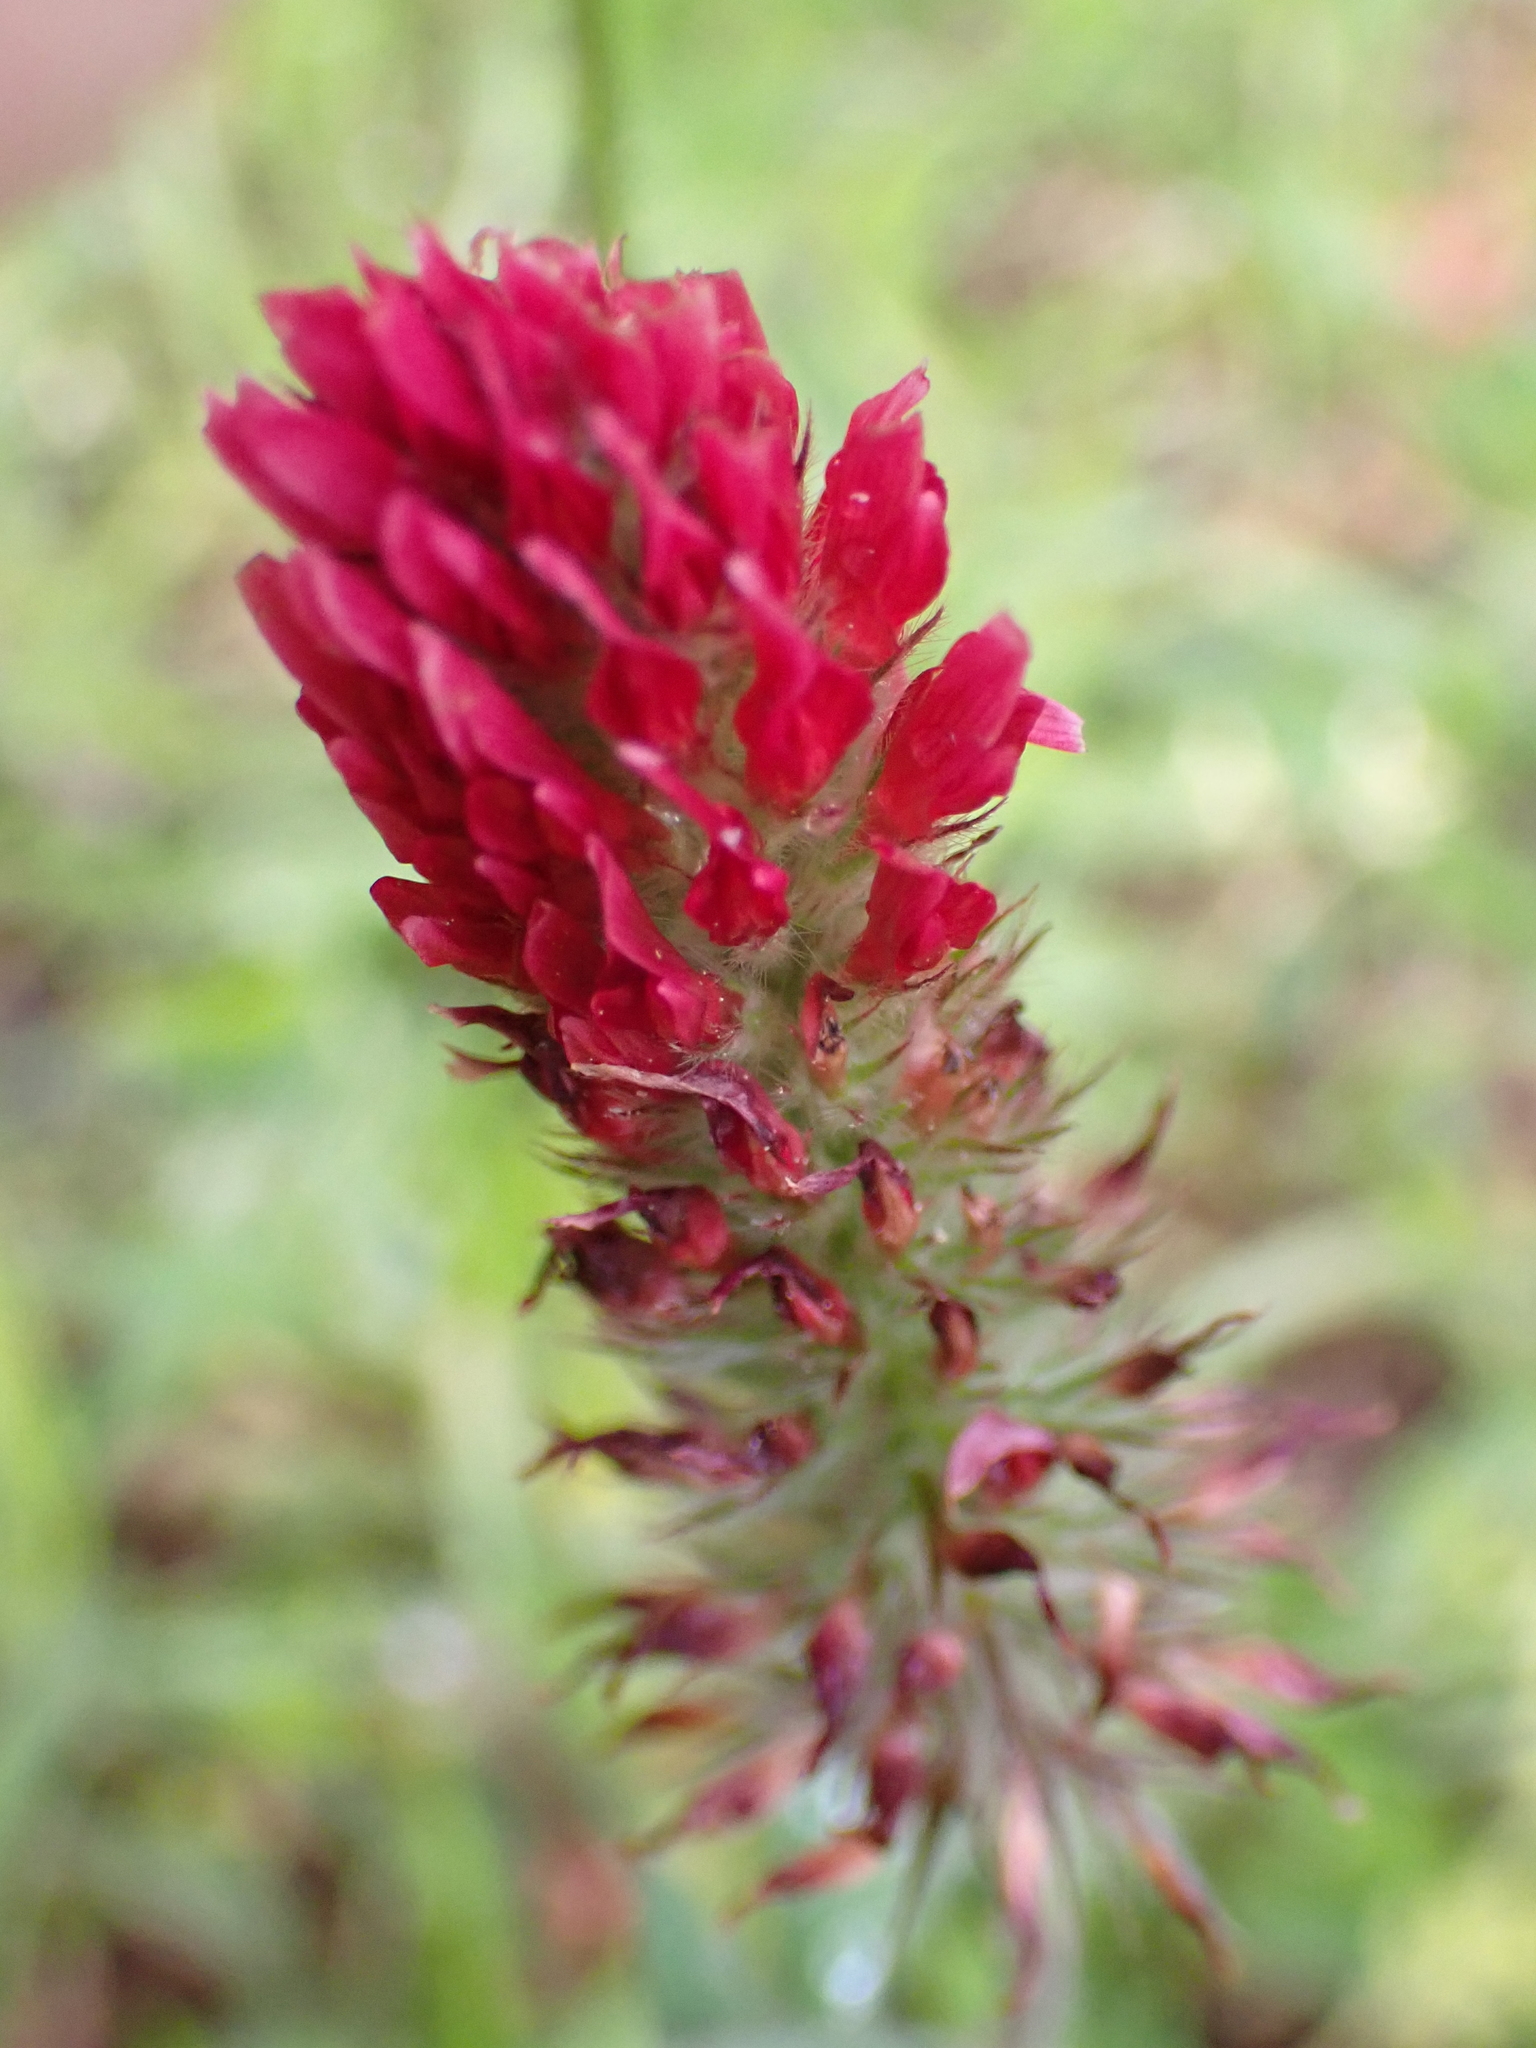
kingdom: Plantae
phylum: Tracheophyta
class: Magnoliopsida
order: Fabales
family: Fabaceae
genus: Trifolium
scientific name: Trifolium incarnatum
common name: Crimson clover
